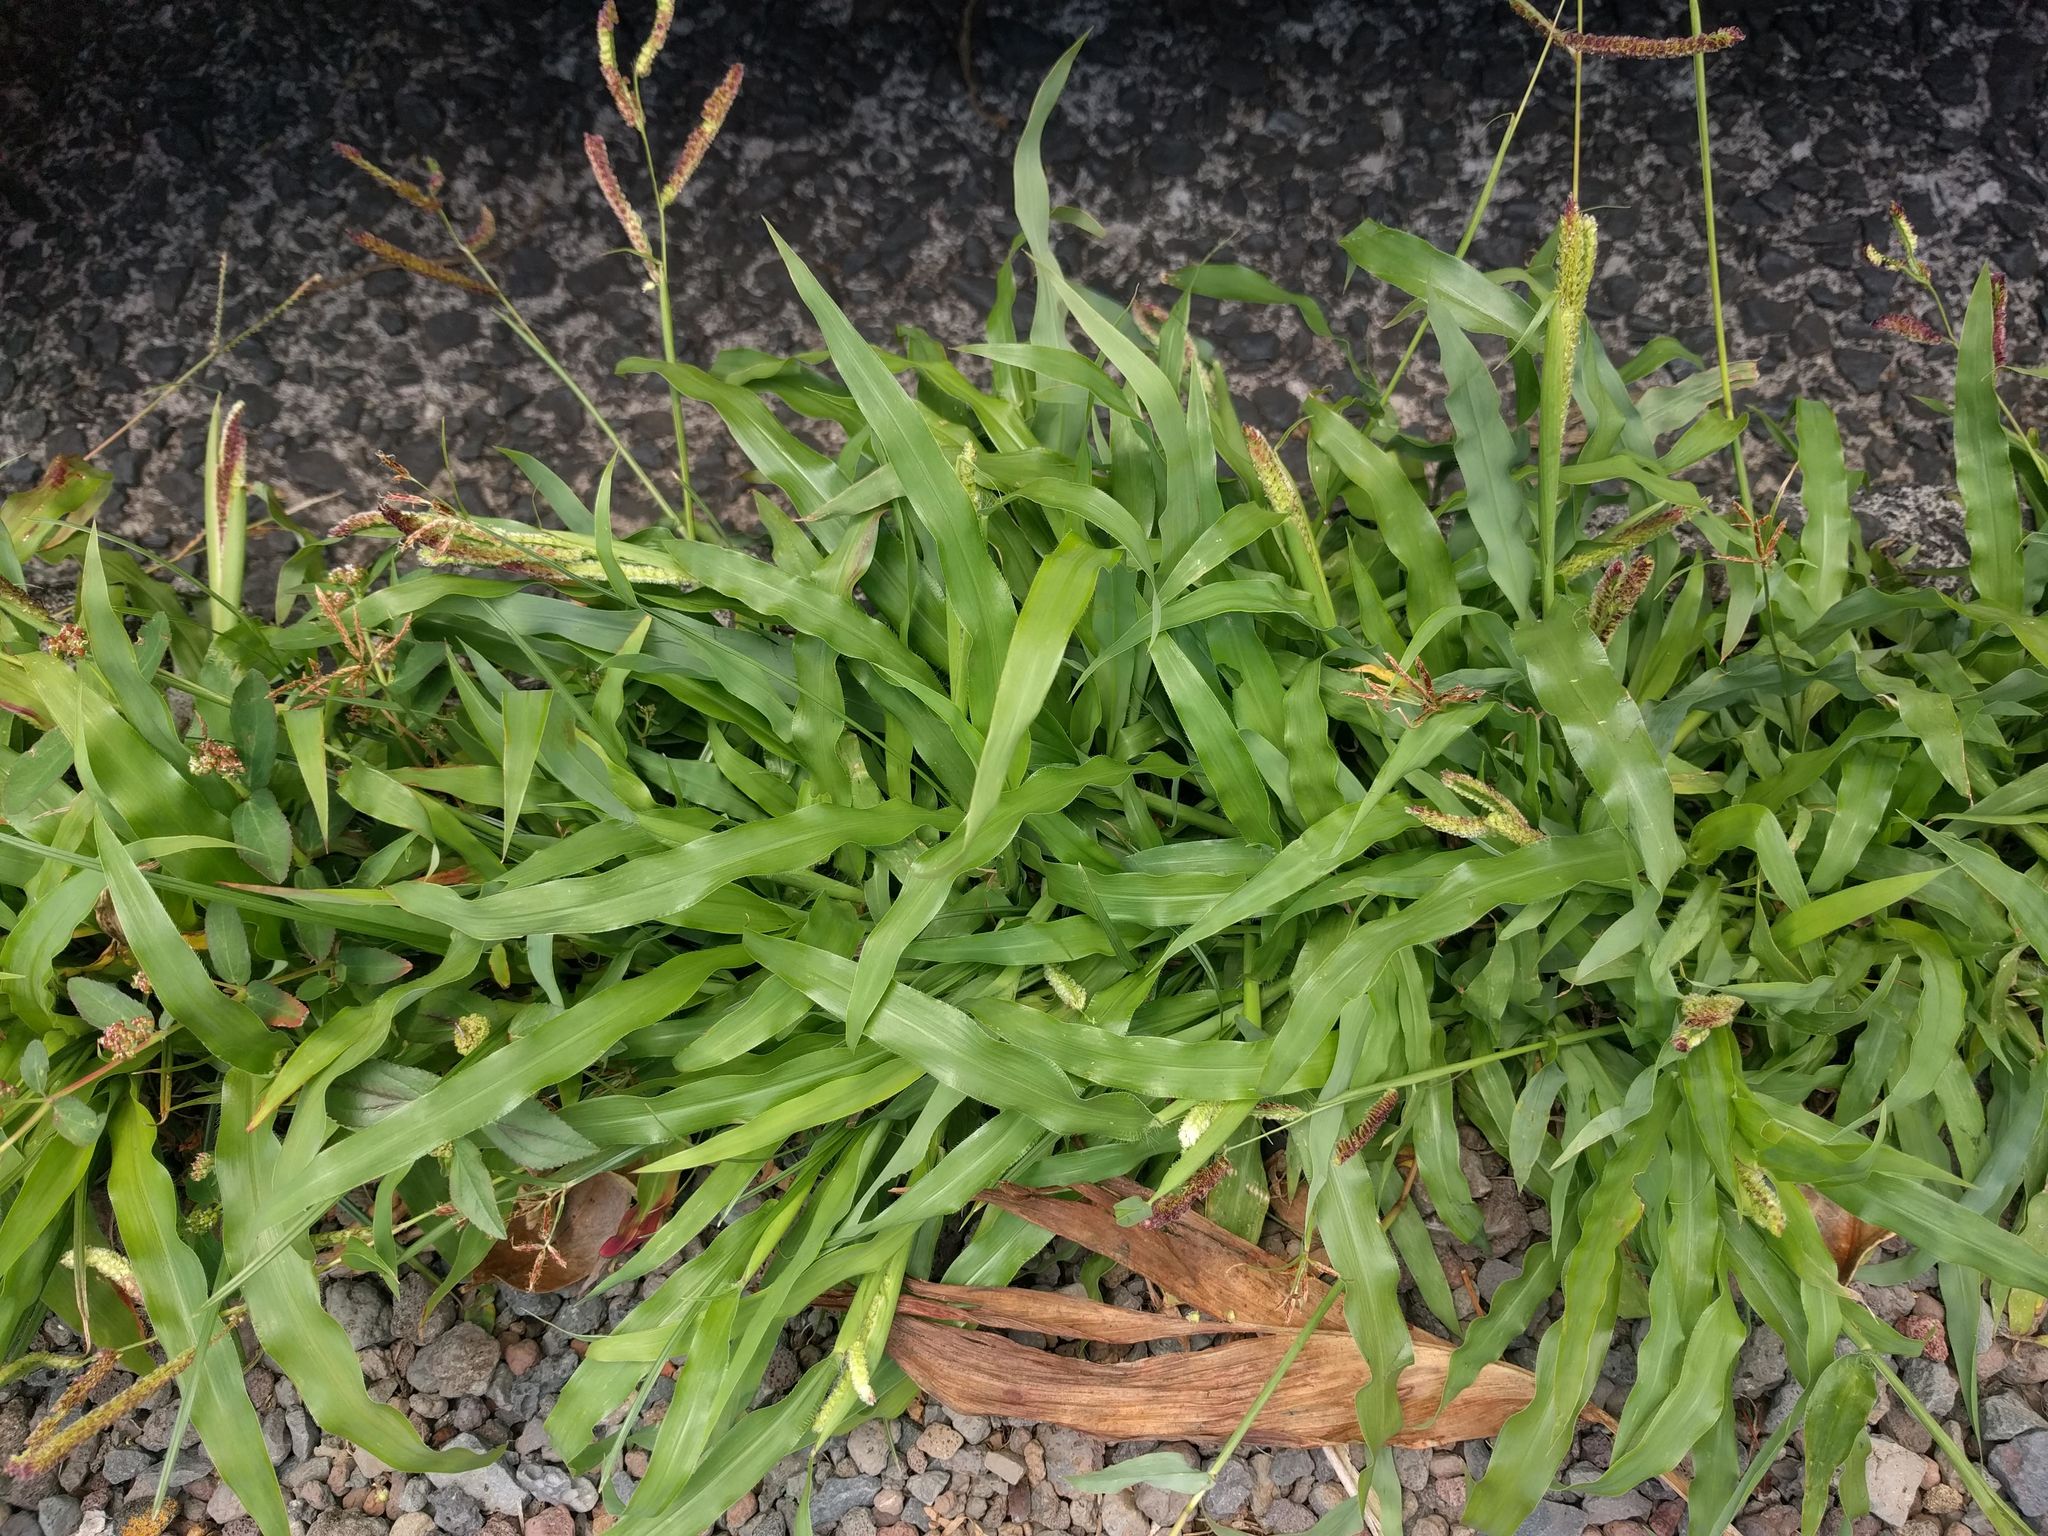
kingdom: Plantae
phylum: Tracheophyta
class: Liliopsida
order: Poales
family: Poaceae
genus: Paspalum
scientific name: Paspalum fimbriatum
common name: Panama crowngrass
